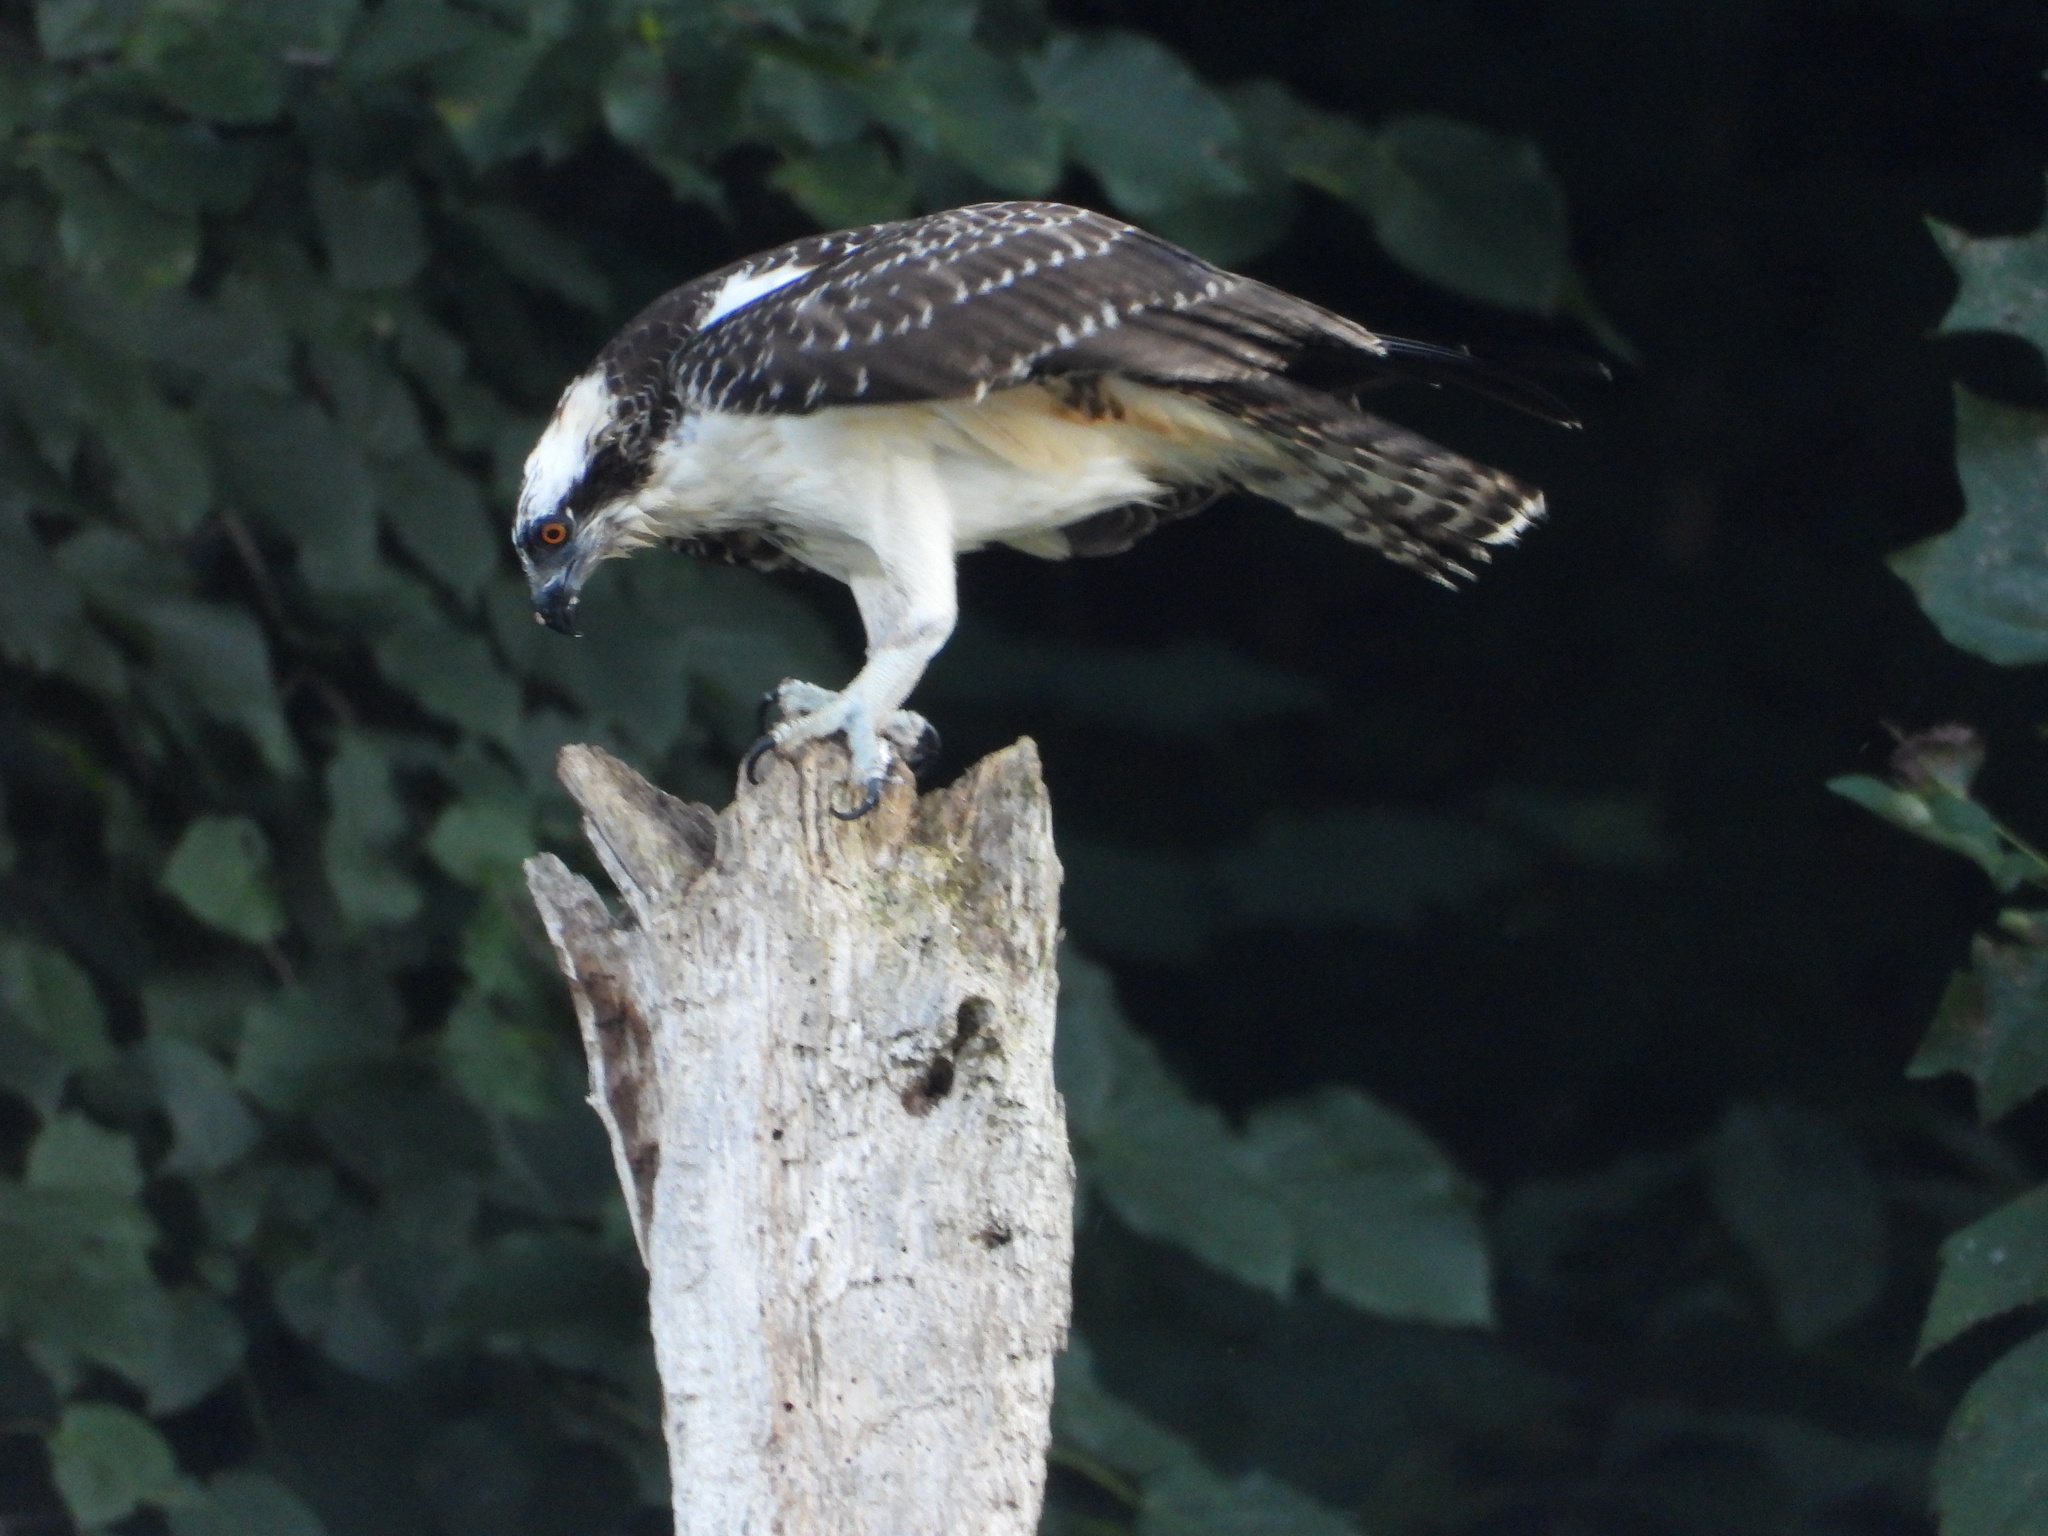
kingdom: Animalia
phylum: Chordata
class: Aves
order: Accipitriformes
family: Pandionidae
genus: Pandion
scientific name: Pandion haliaetus
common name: Osprey
